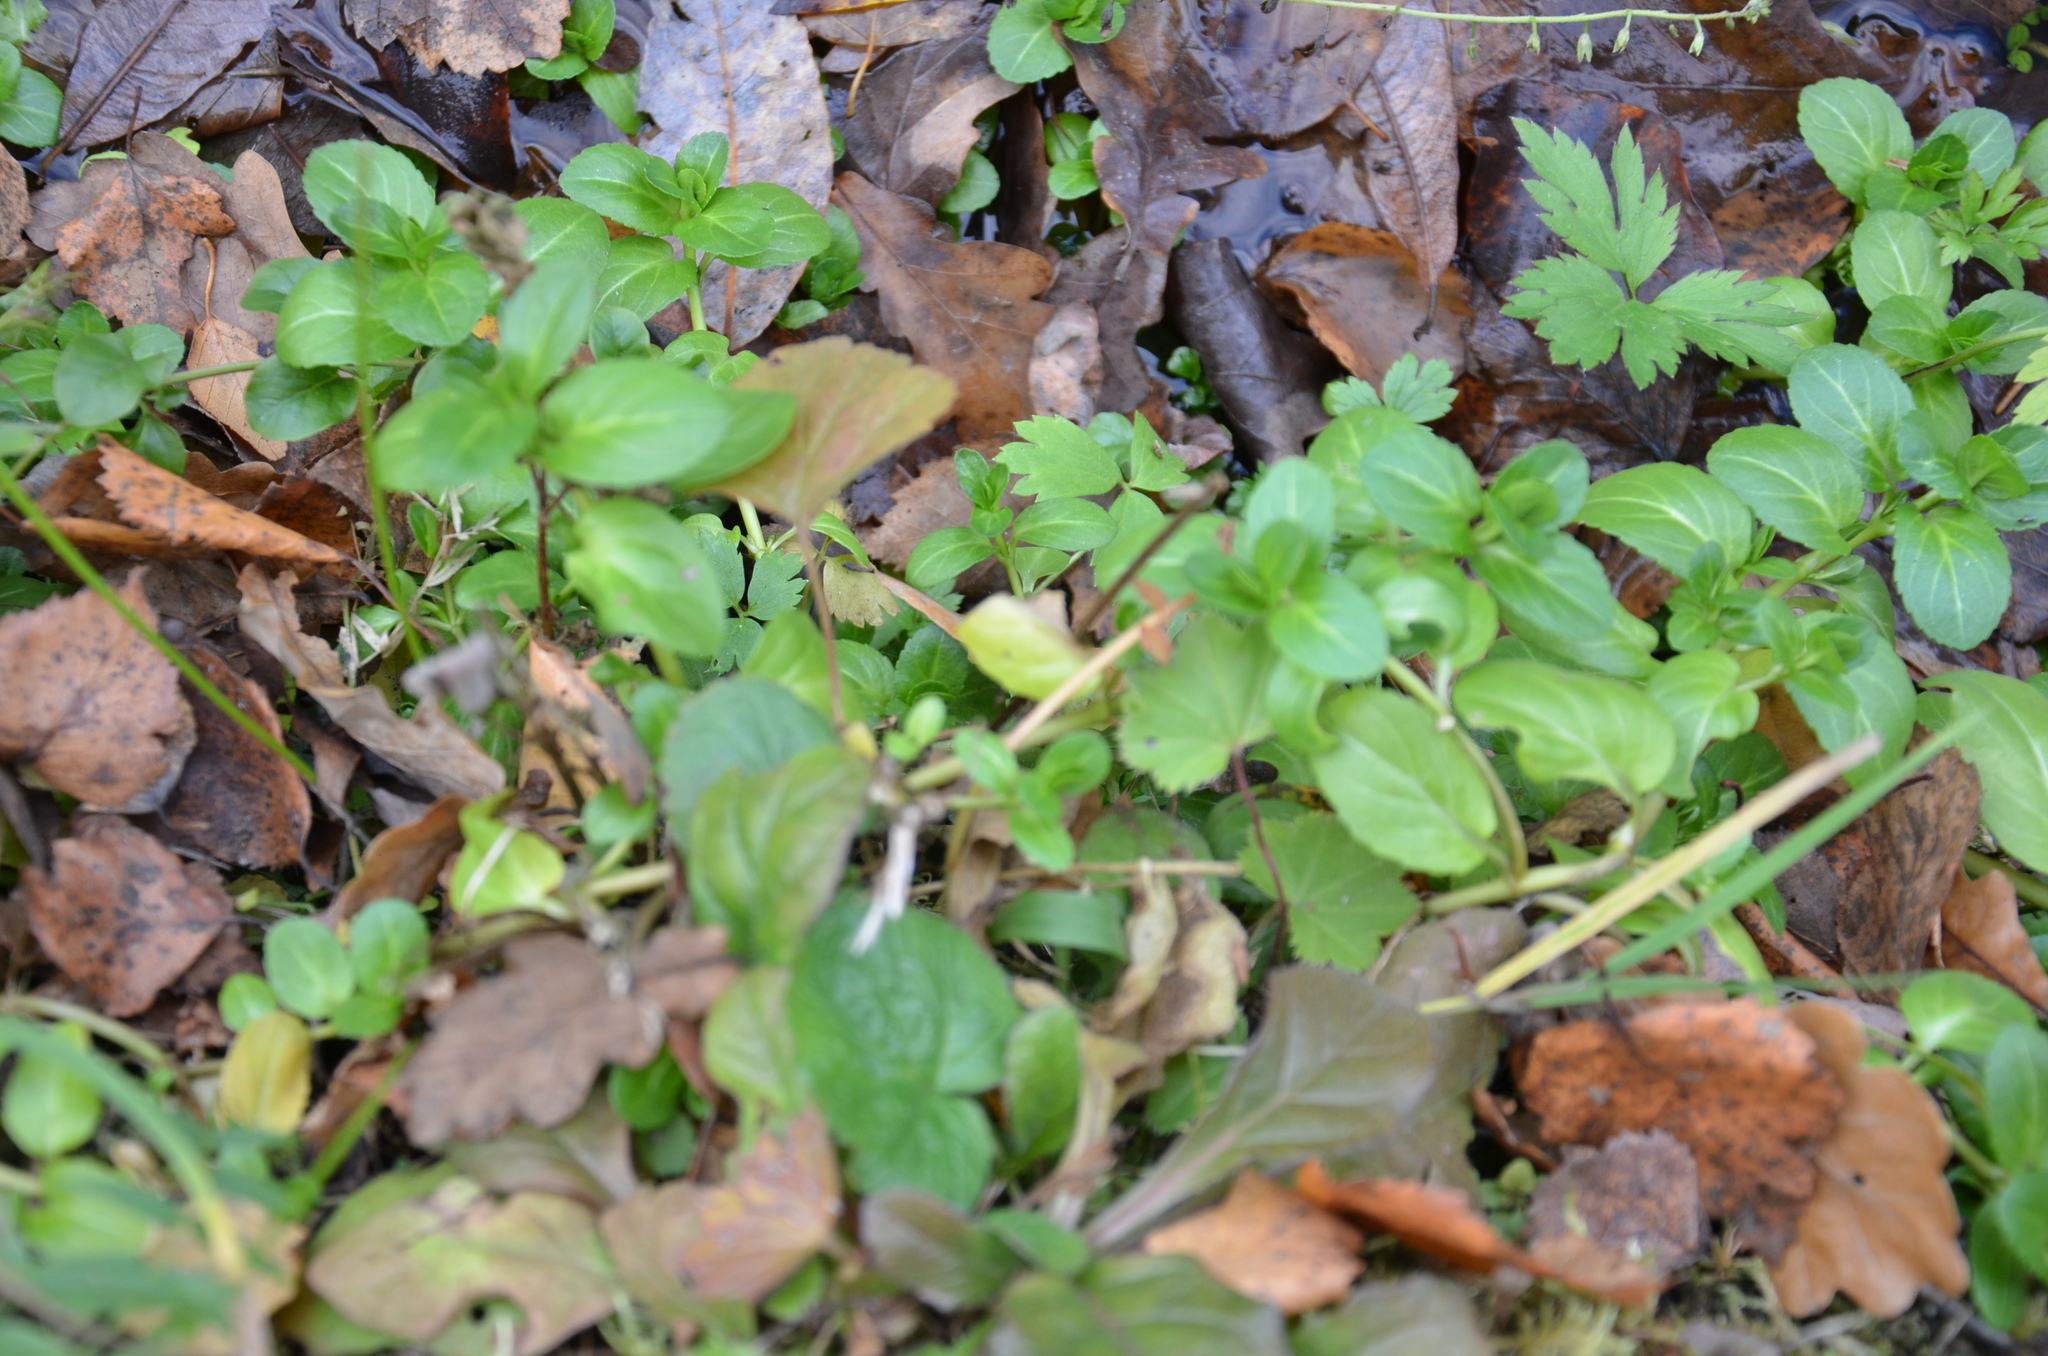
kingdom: Plantae
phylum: Tracheophyta
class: Magnoliopsida
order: Lamiales
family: Plantaginaceae
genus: Veronica
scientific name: Veronica beccabunga
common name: Brooklime
